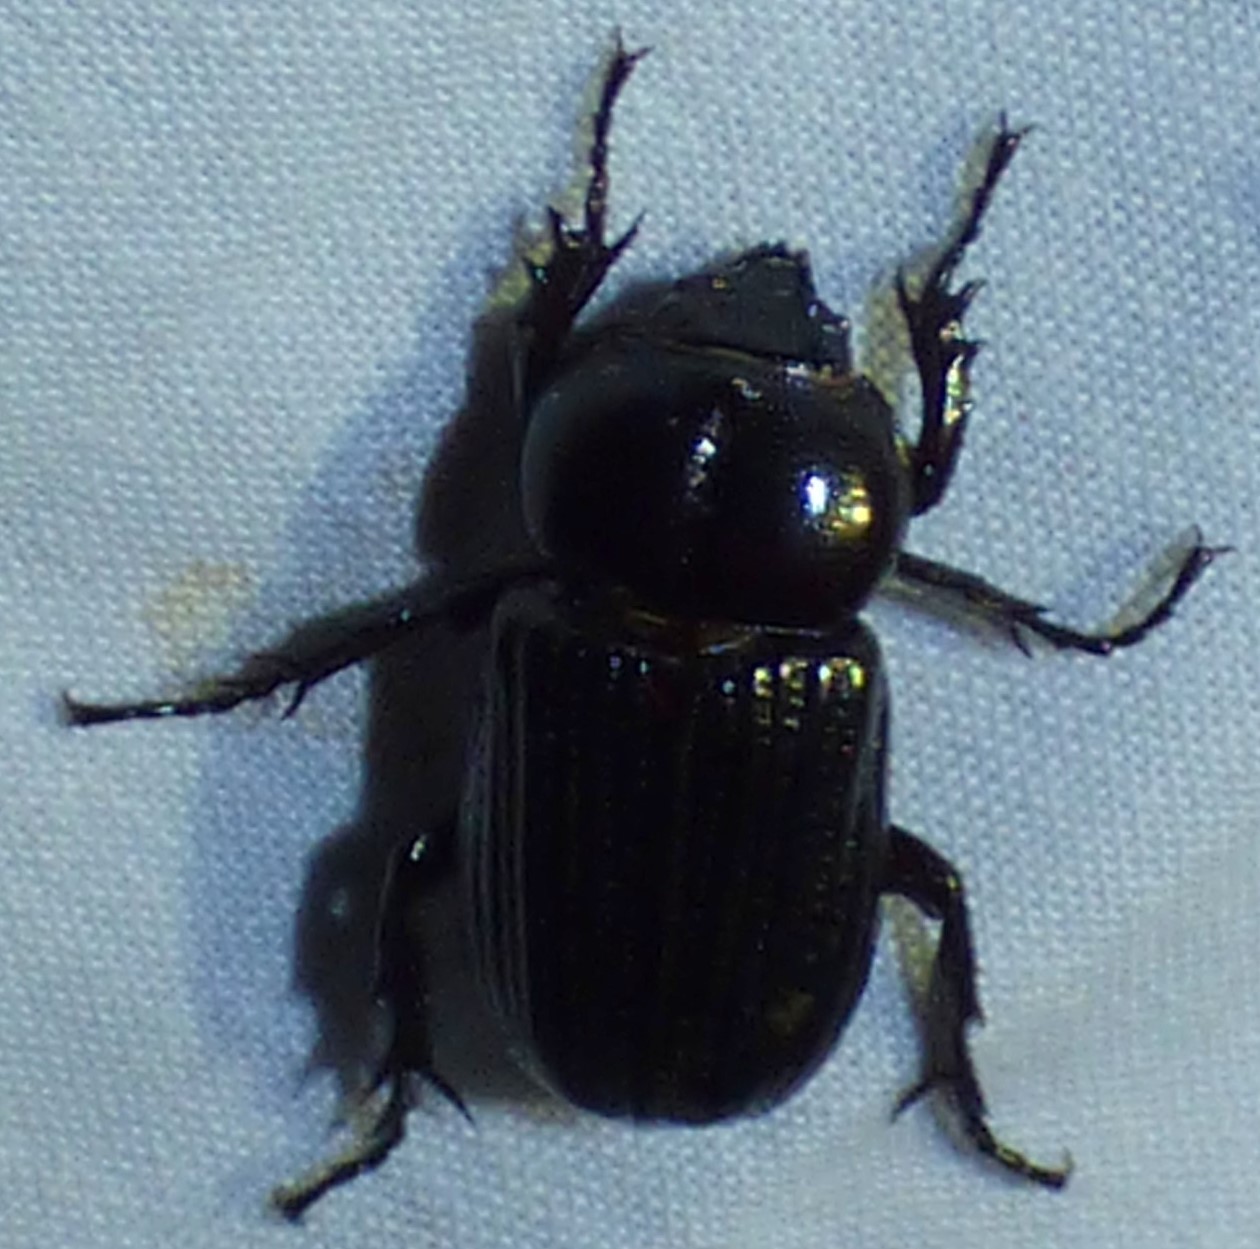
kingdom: Animalia
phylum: Arthropoda
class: Insecta
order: Coleoptera
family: Scarabaeidae
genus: Phileurus
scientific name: Phileurus valgus
